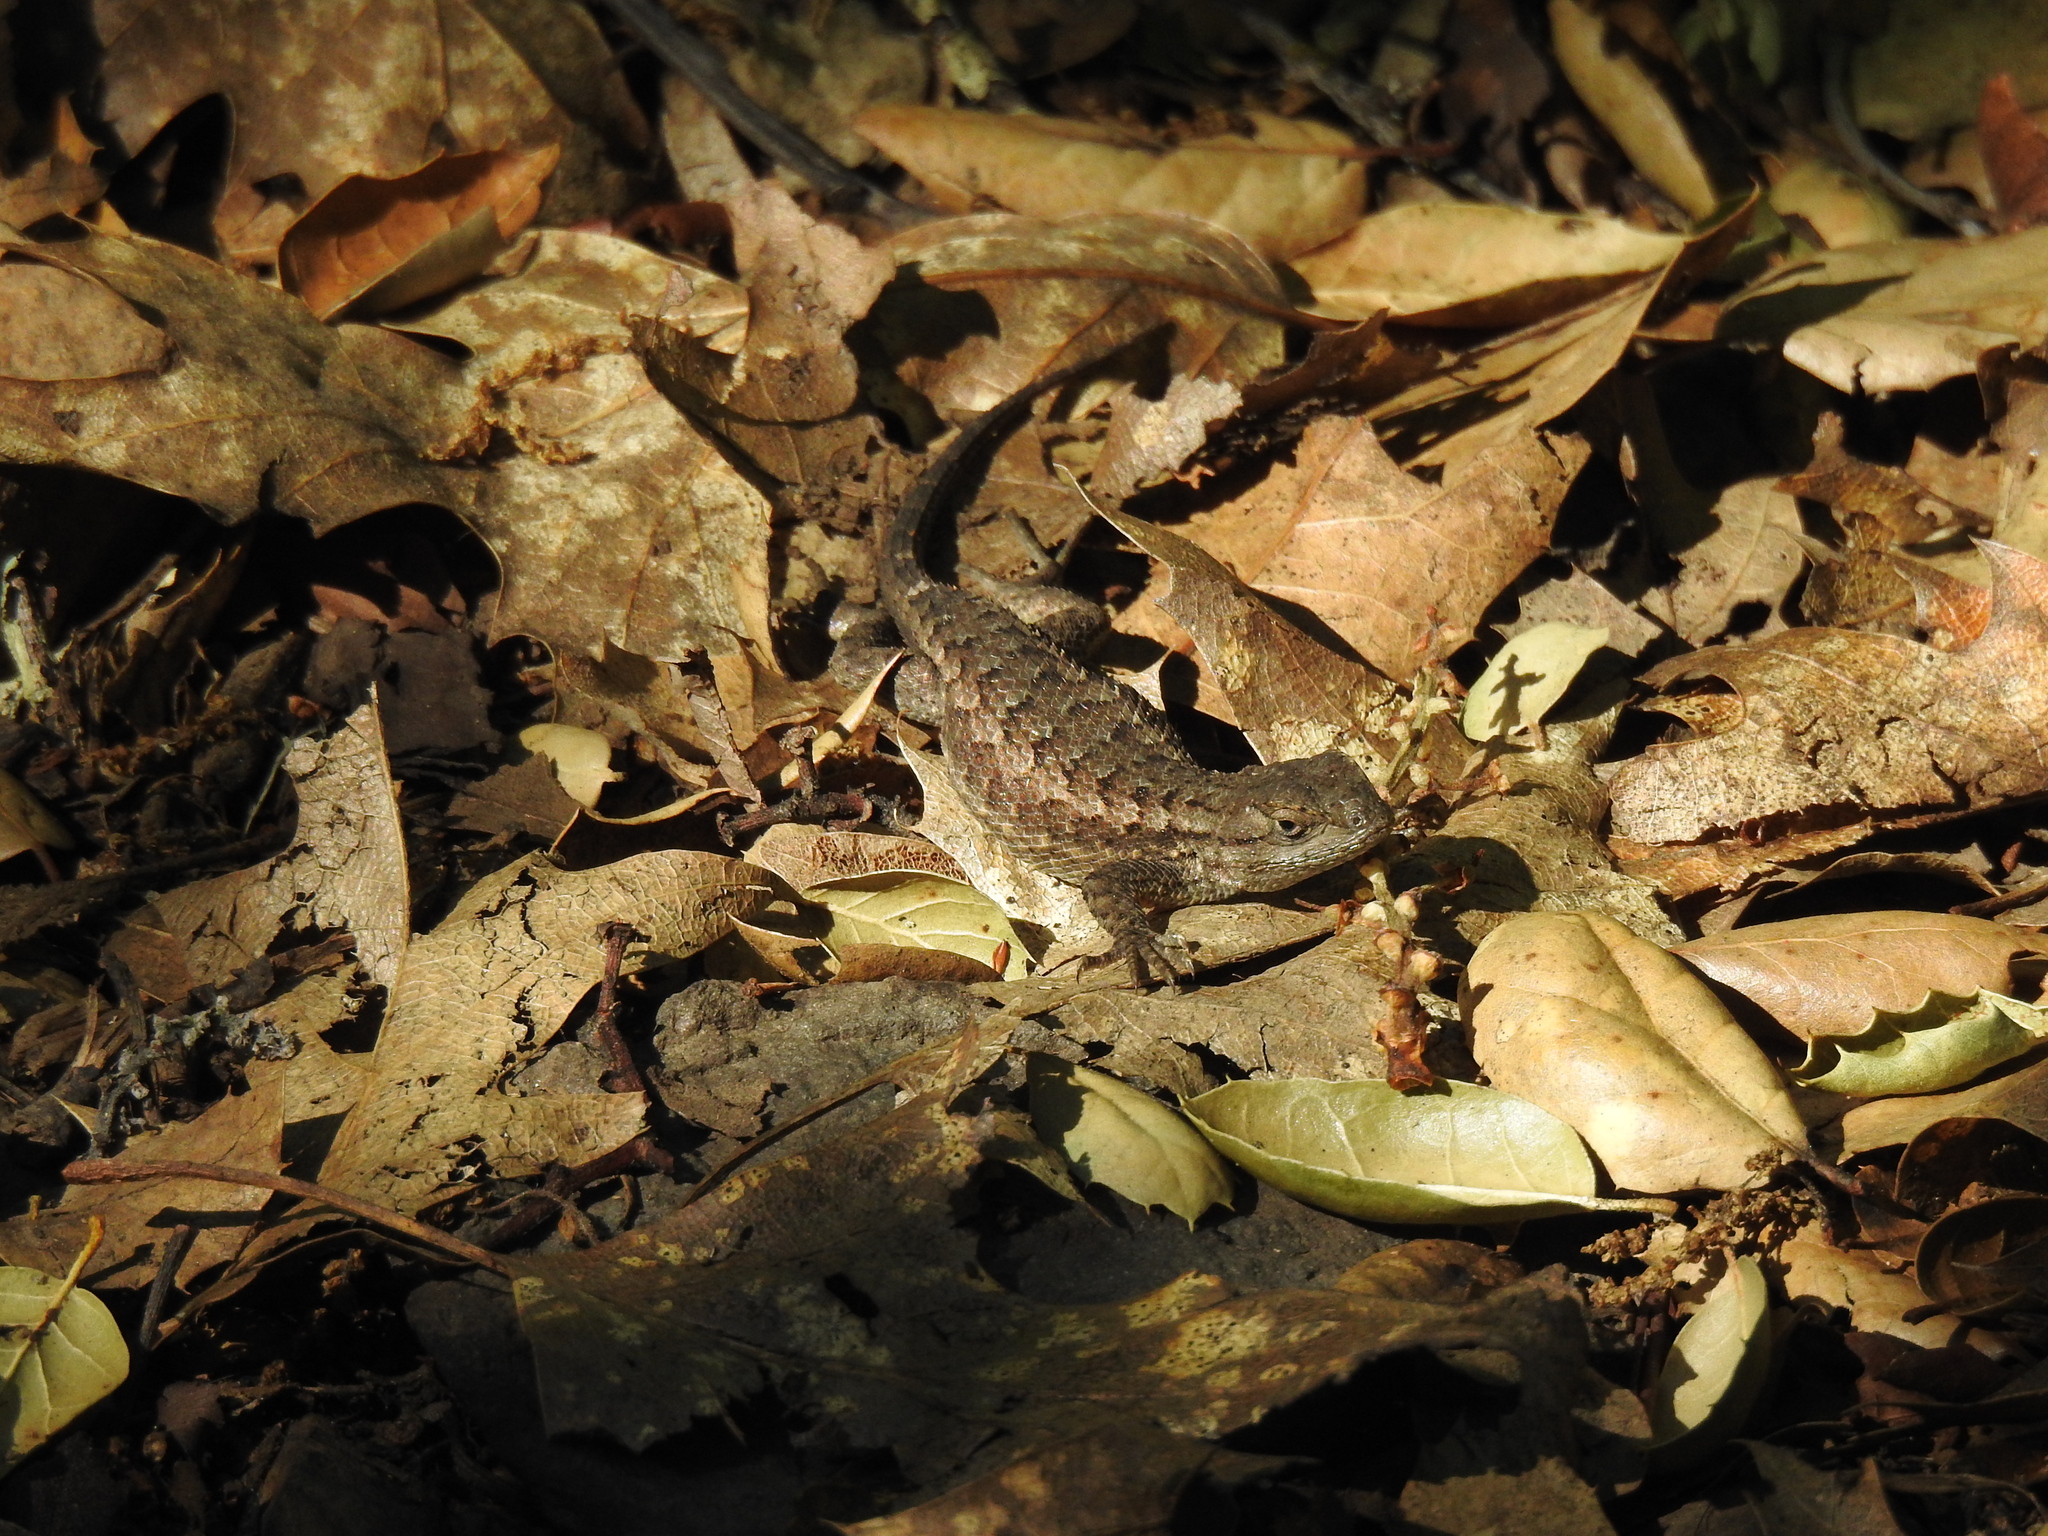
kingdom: Animalia
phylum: Chordata
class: Squamata
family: Phrynosomatidae
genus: Sceloporus
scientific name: Sceloporus occidentalis
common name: Western fence lizard
